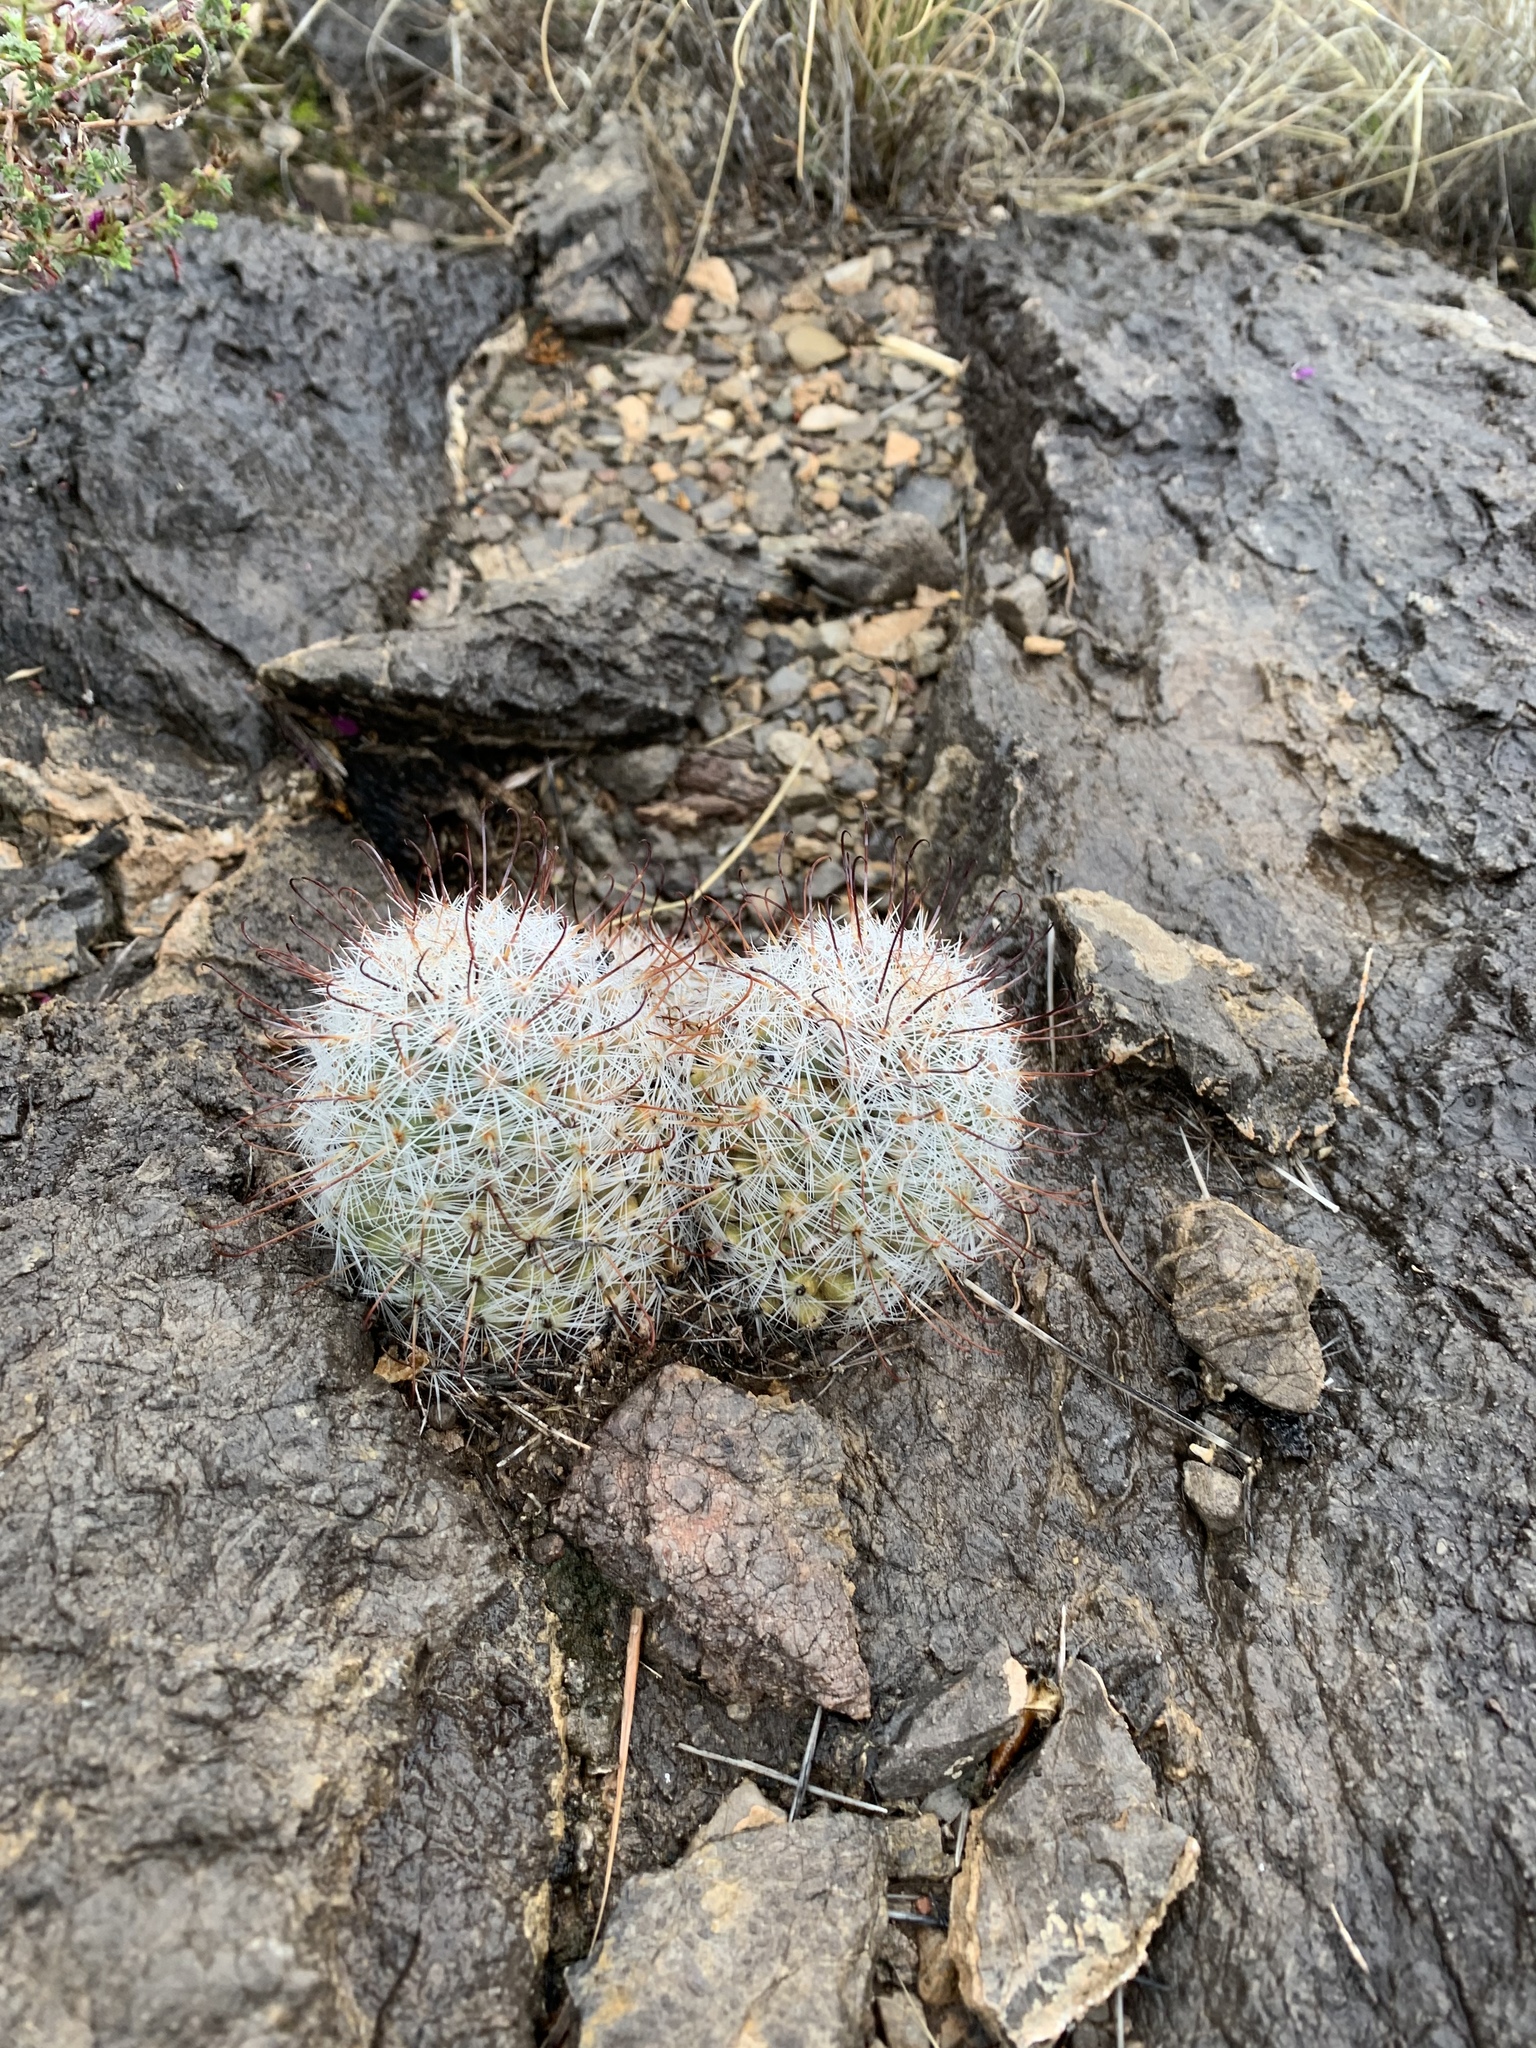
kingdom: Plantae
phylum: Tracheophyta
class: Magnoliopsida
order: Caryophyllales
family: Cactaceae
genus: Cochemiea
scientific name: Cochemiea grahamii
